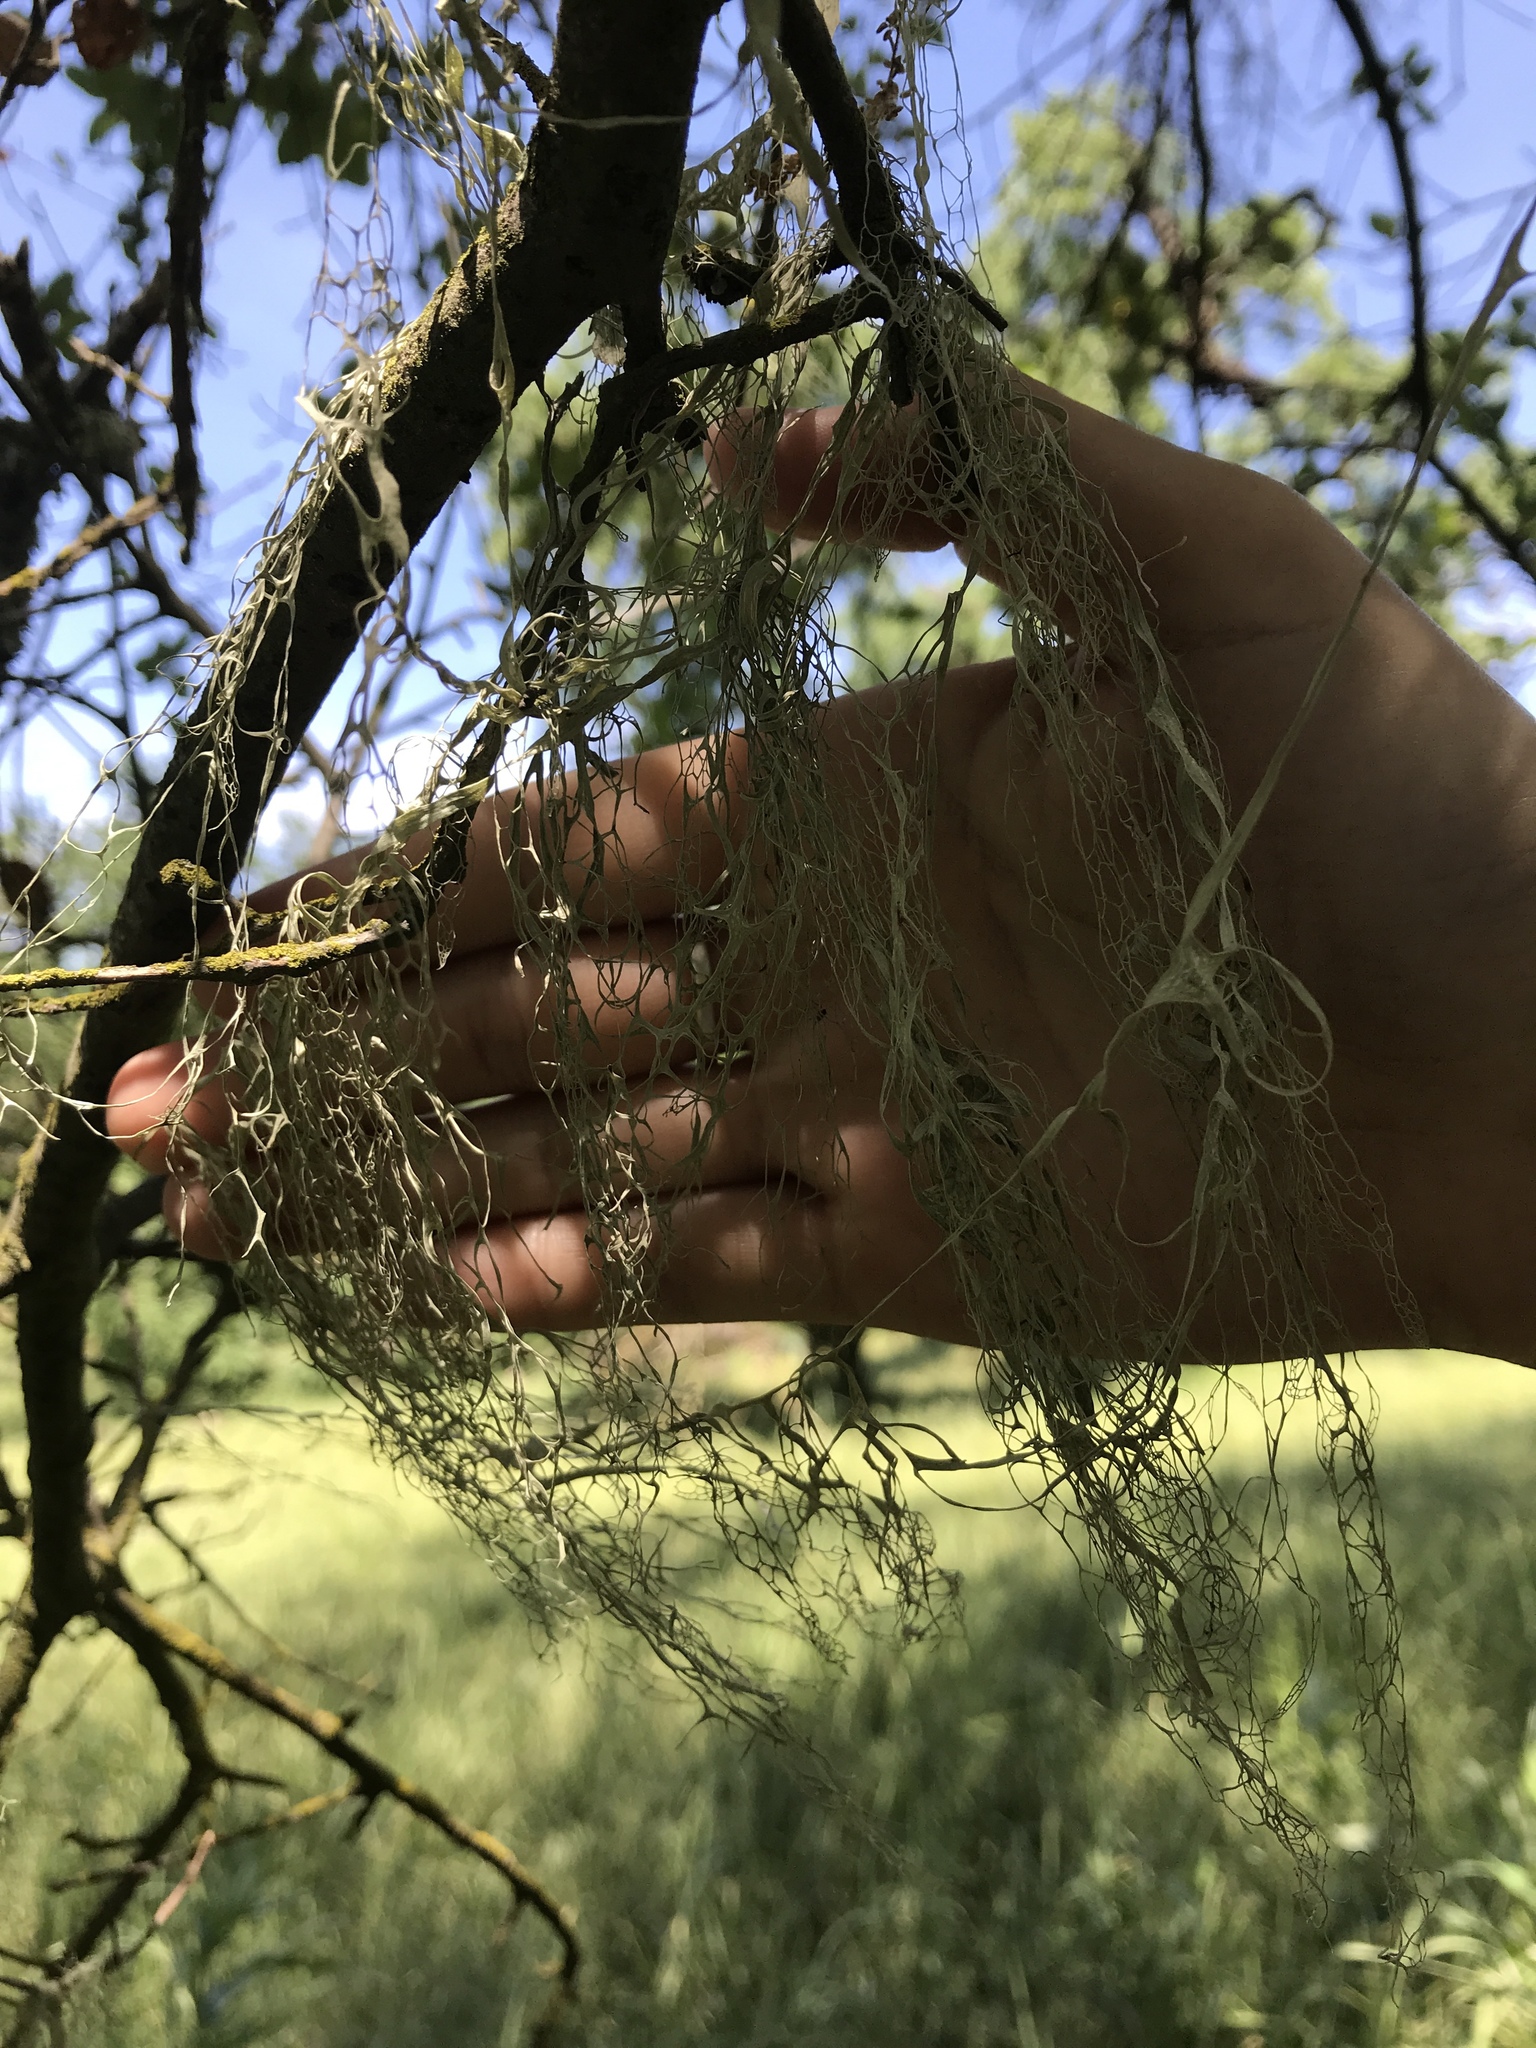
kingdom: Fungi
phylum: Ascomycota
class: Lecanoromycetes
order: Lecanorales
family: Ramalinaceae
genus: Ramalina
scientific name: Ramalina menziesii
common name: Lace lichen
